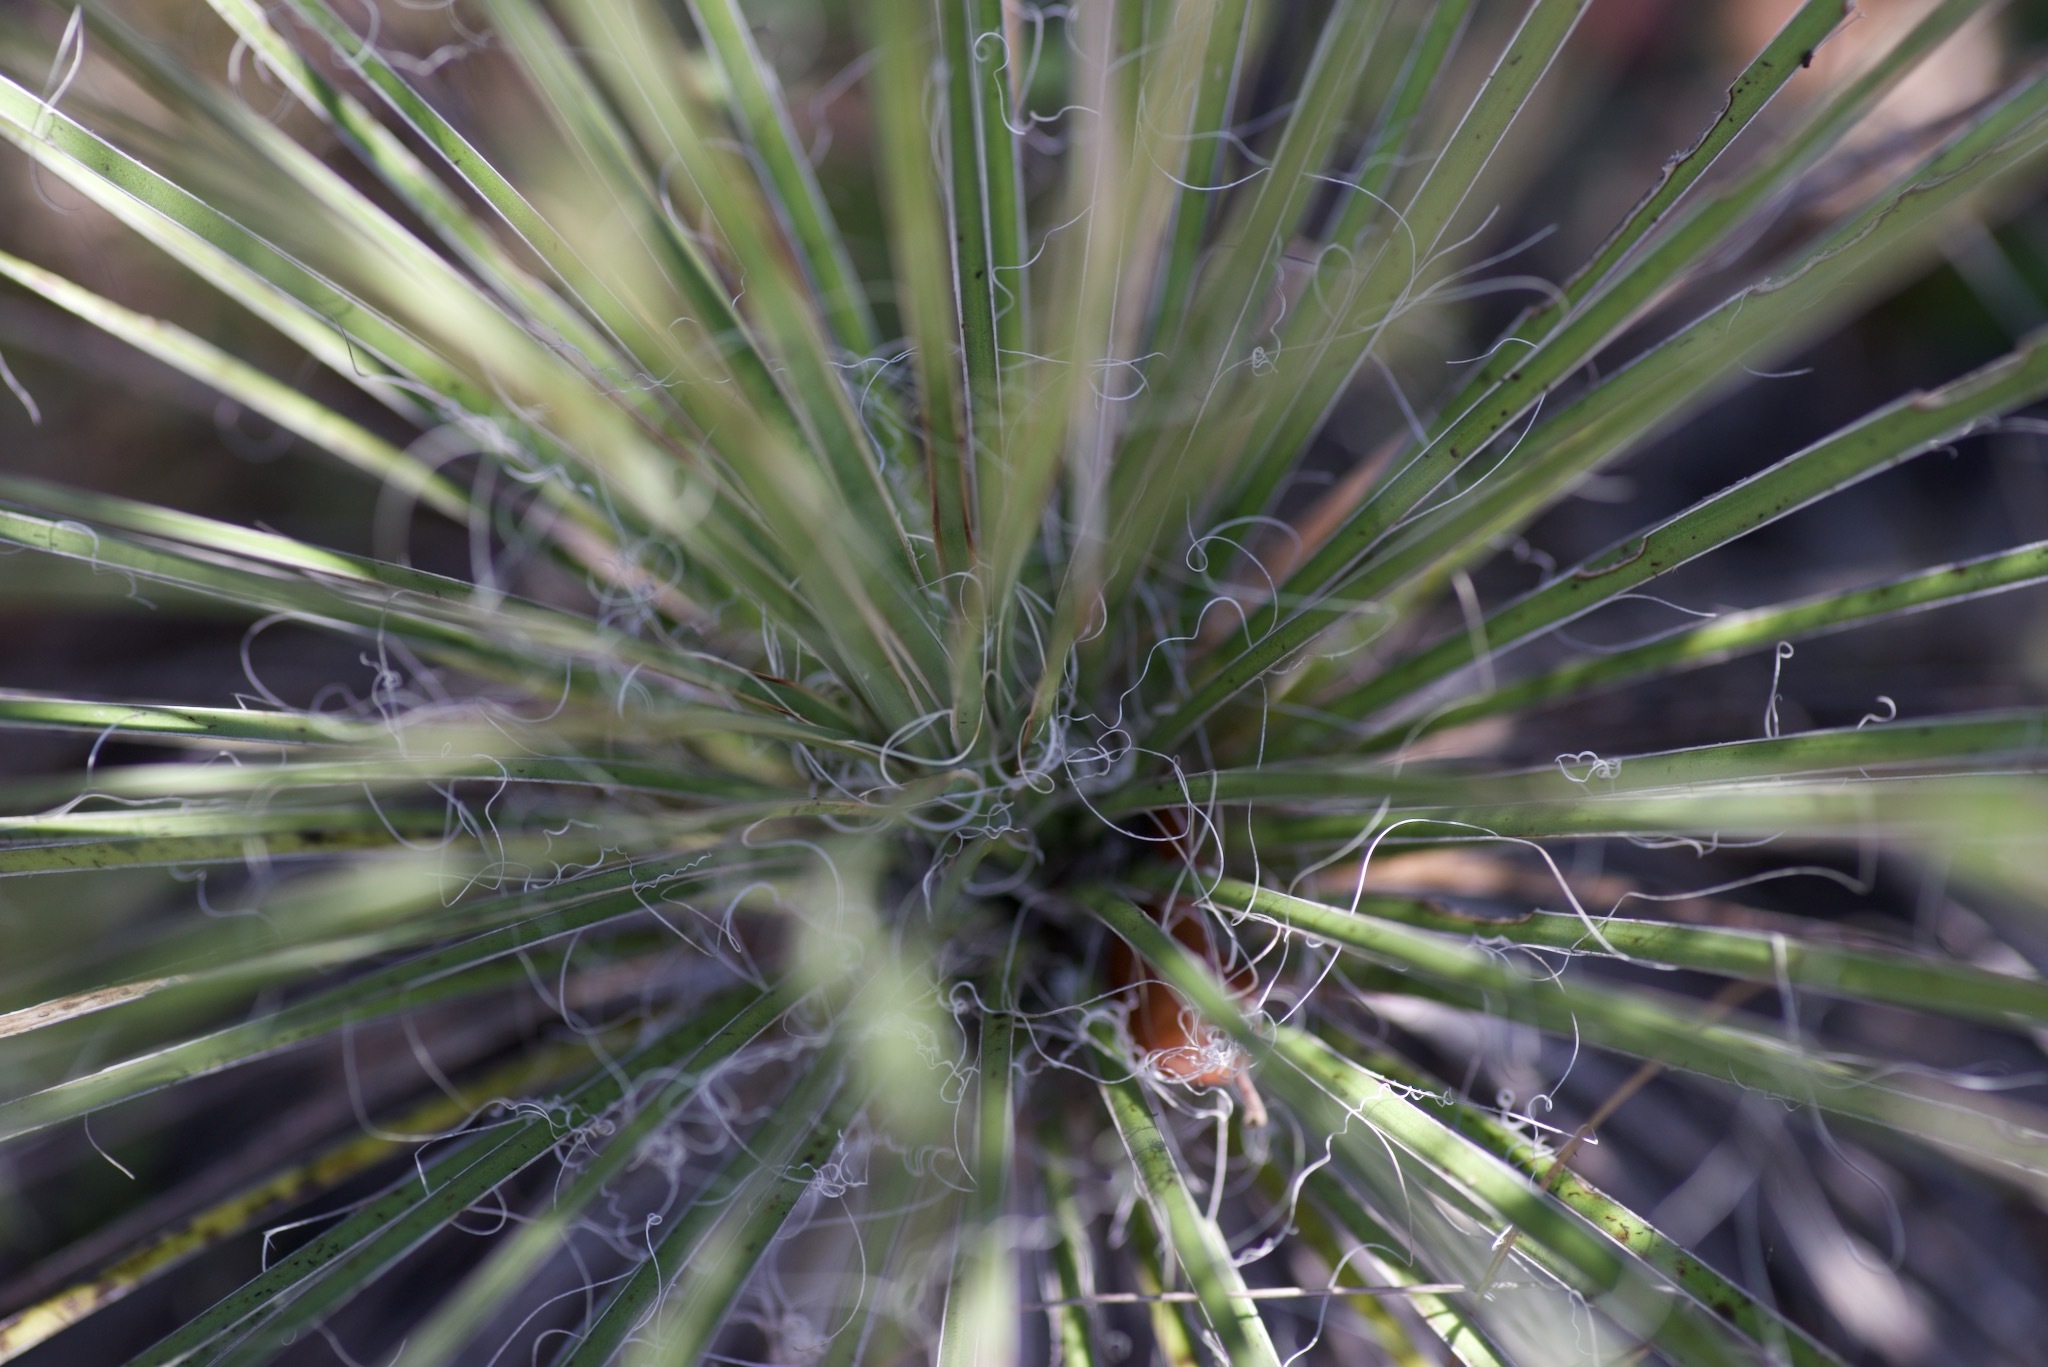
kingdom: Plantae
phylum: Tracheophyta
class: Liliopsida
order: Asparagales
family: Asparagaceae
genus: Yucca
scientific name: Yucca constricta
